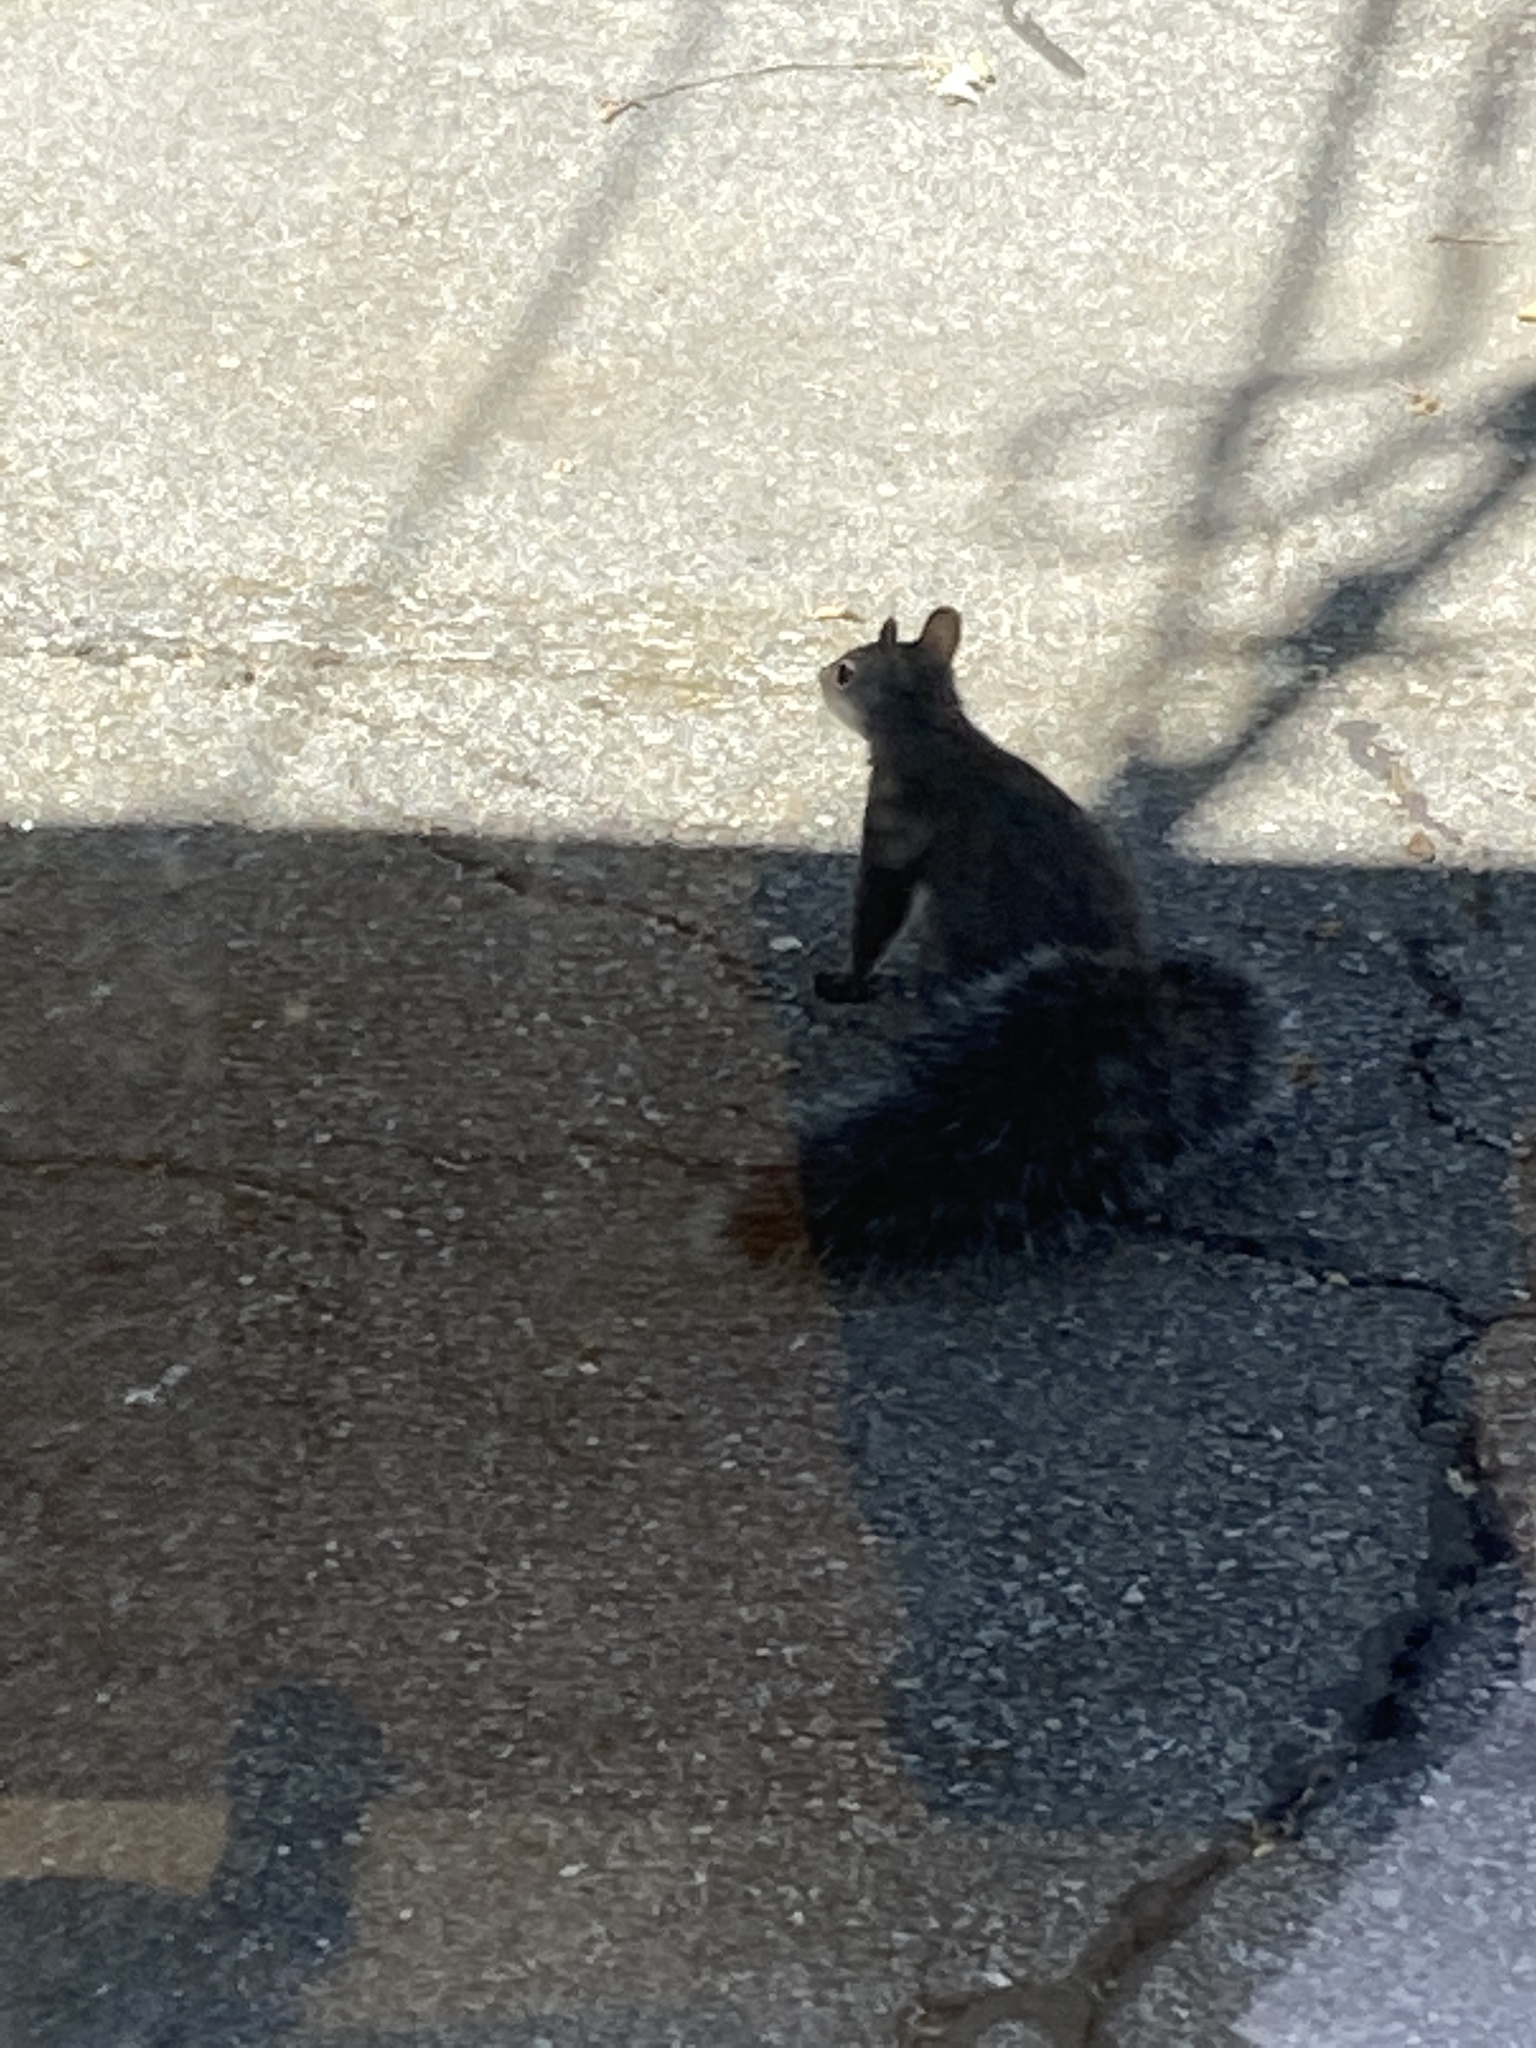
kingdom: Animalia
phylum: Chordata
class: Mammalia
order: Rodentia
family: Sciuridae
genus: Sciurus
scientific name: Sciurus griseus
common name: Western gray squirrel
